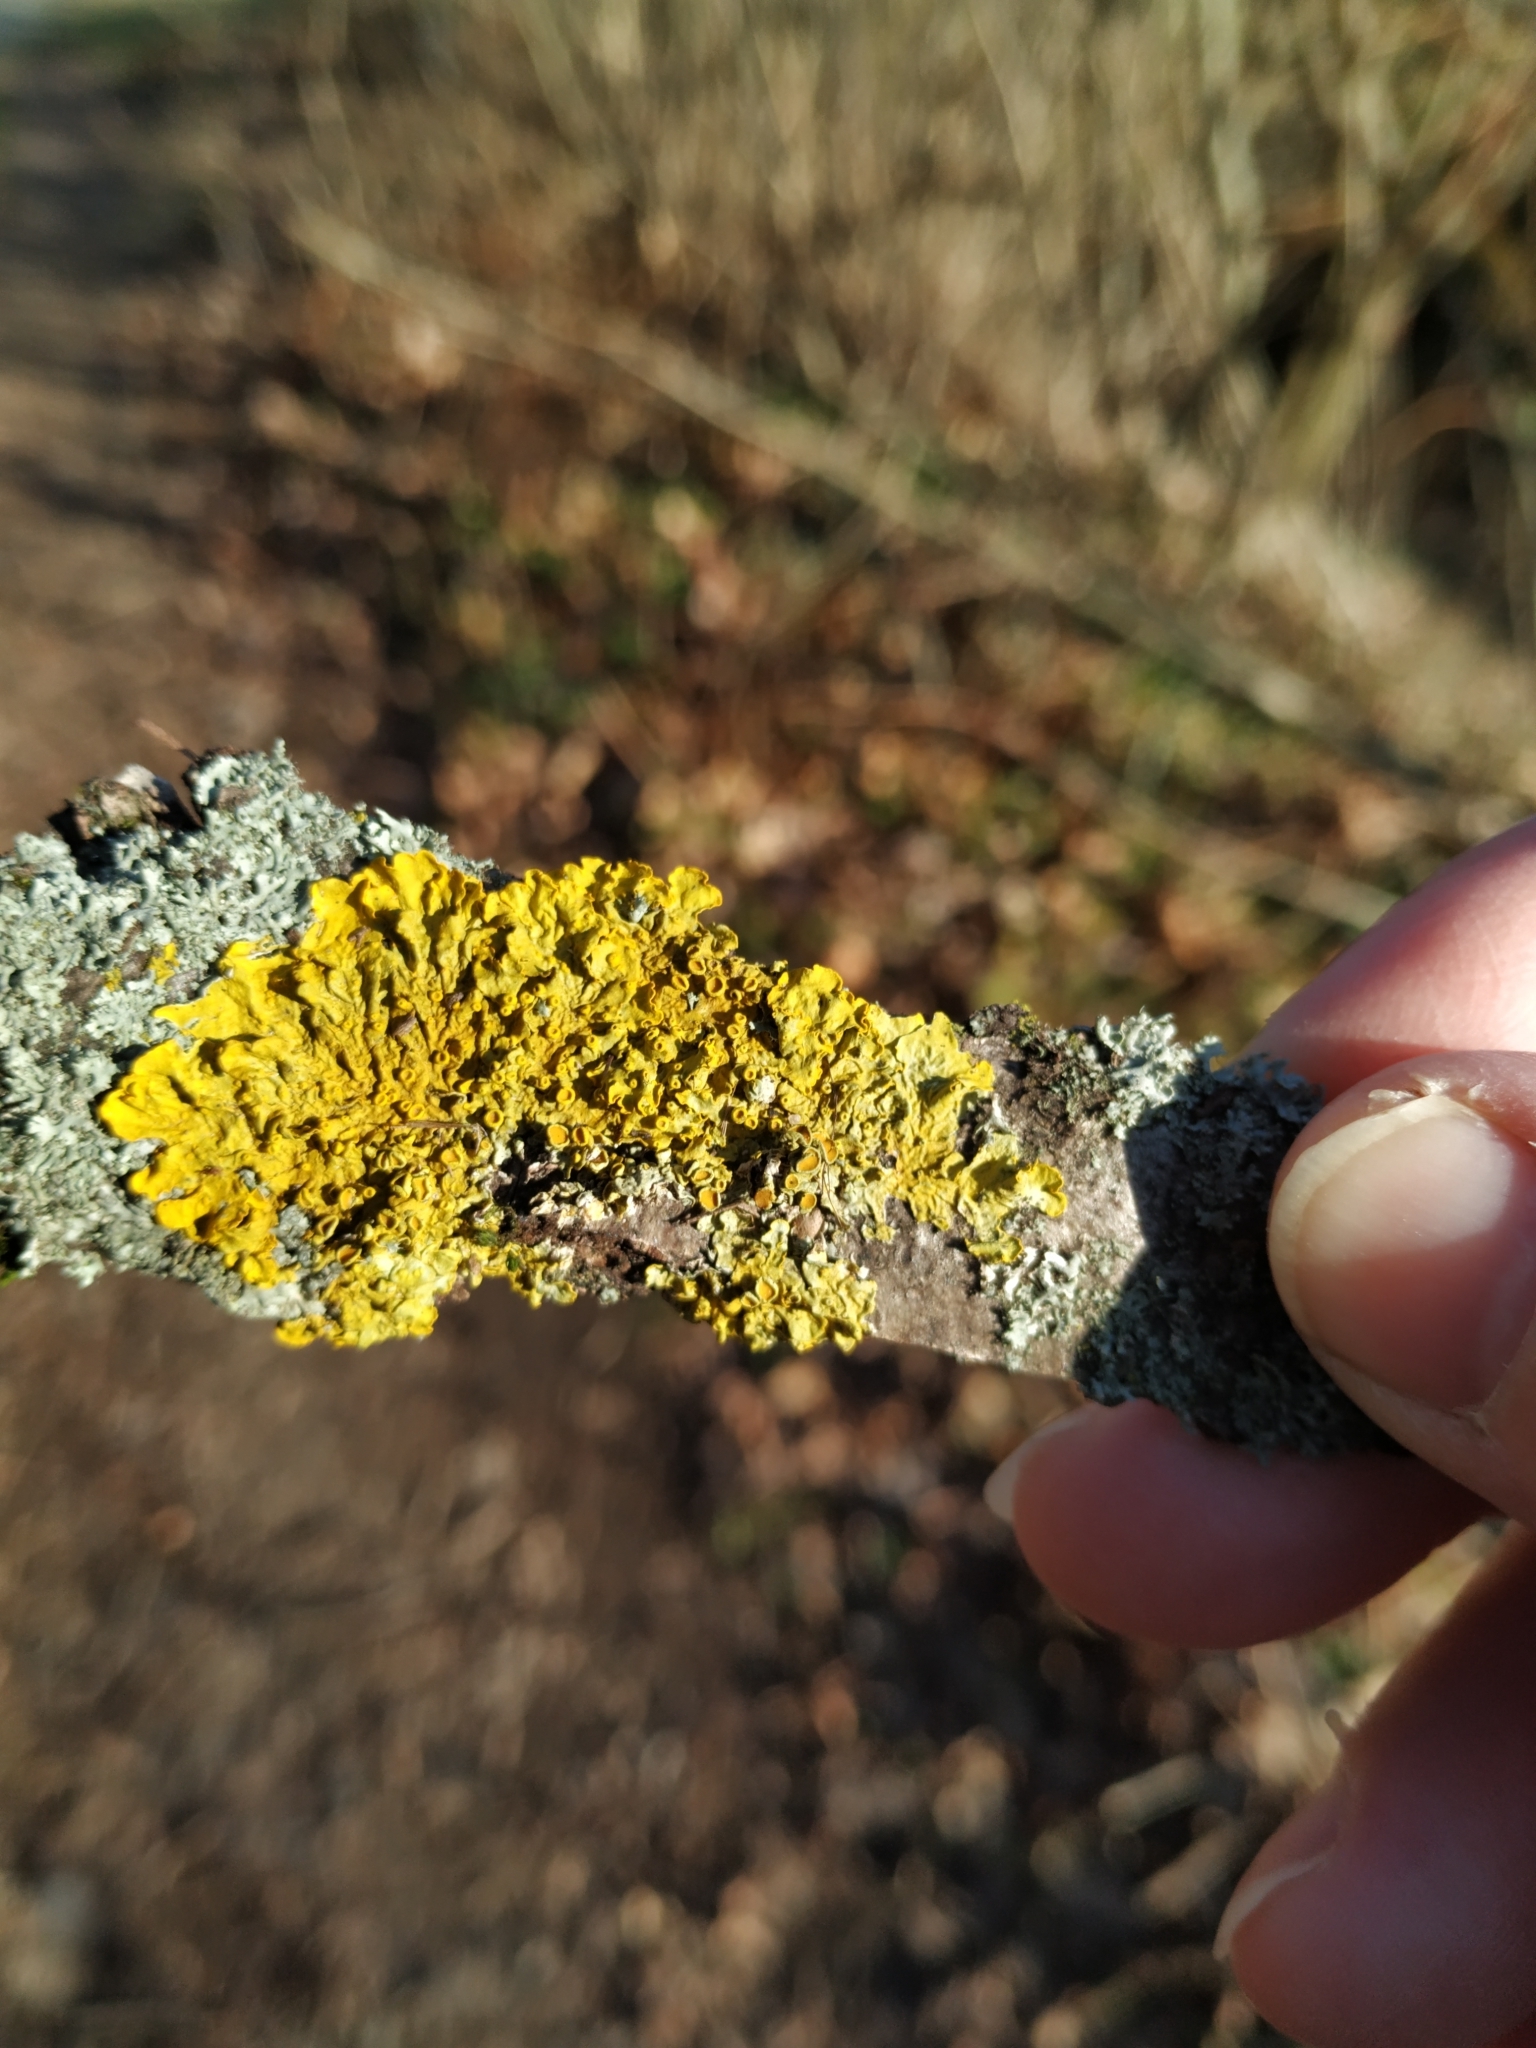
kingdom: Fungi
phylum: Ascomycota
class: Lecanoromycetes
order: Teloschistales
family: Teloschistaceae
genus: Xanthoria
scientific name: Xanthoria parietina
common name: Common orange lichen
